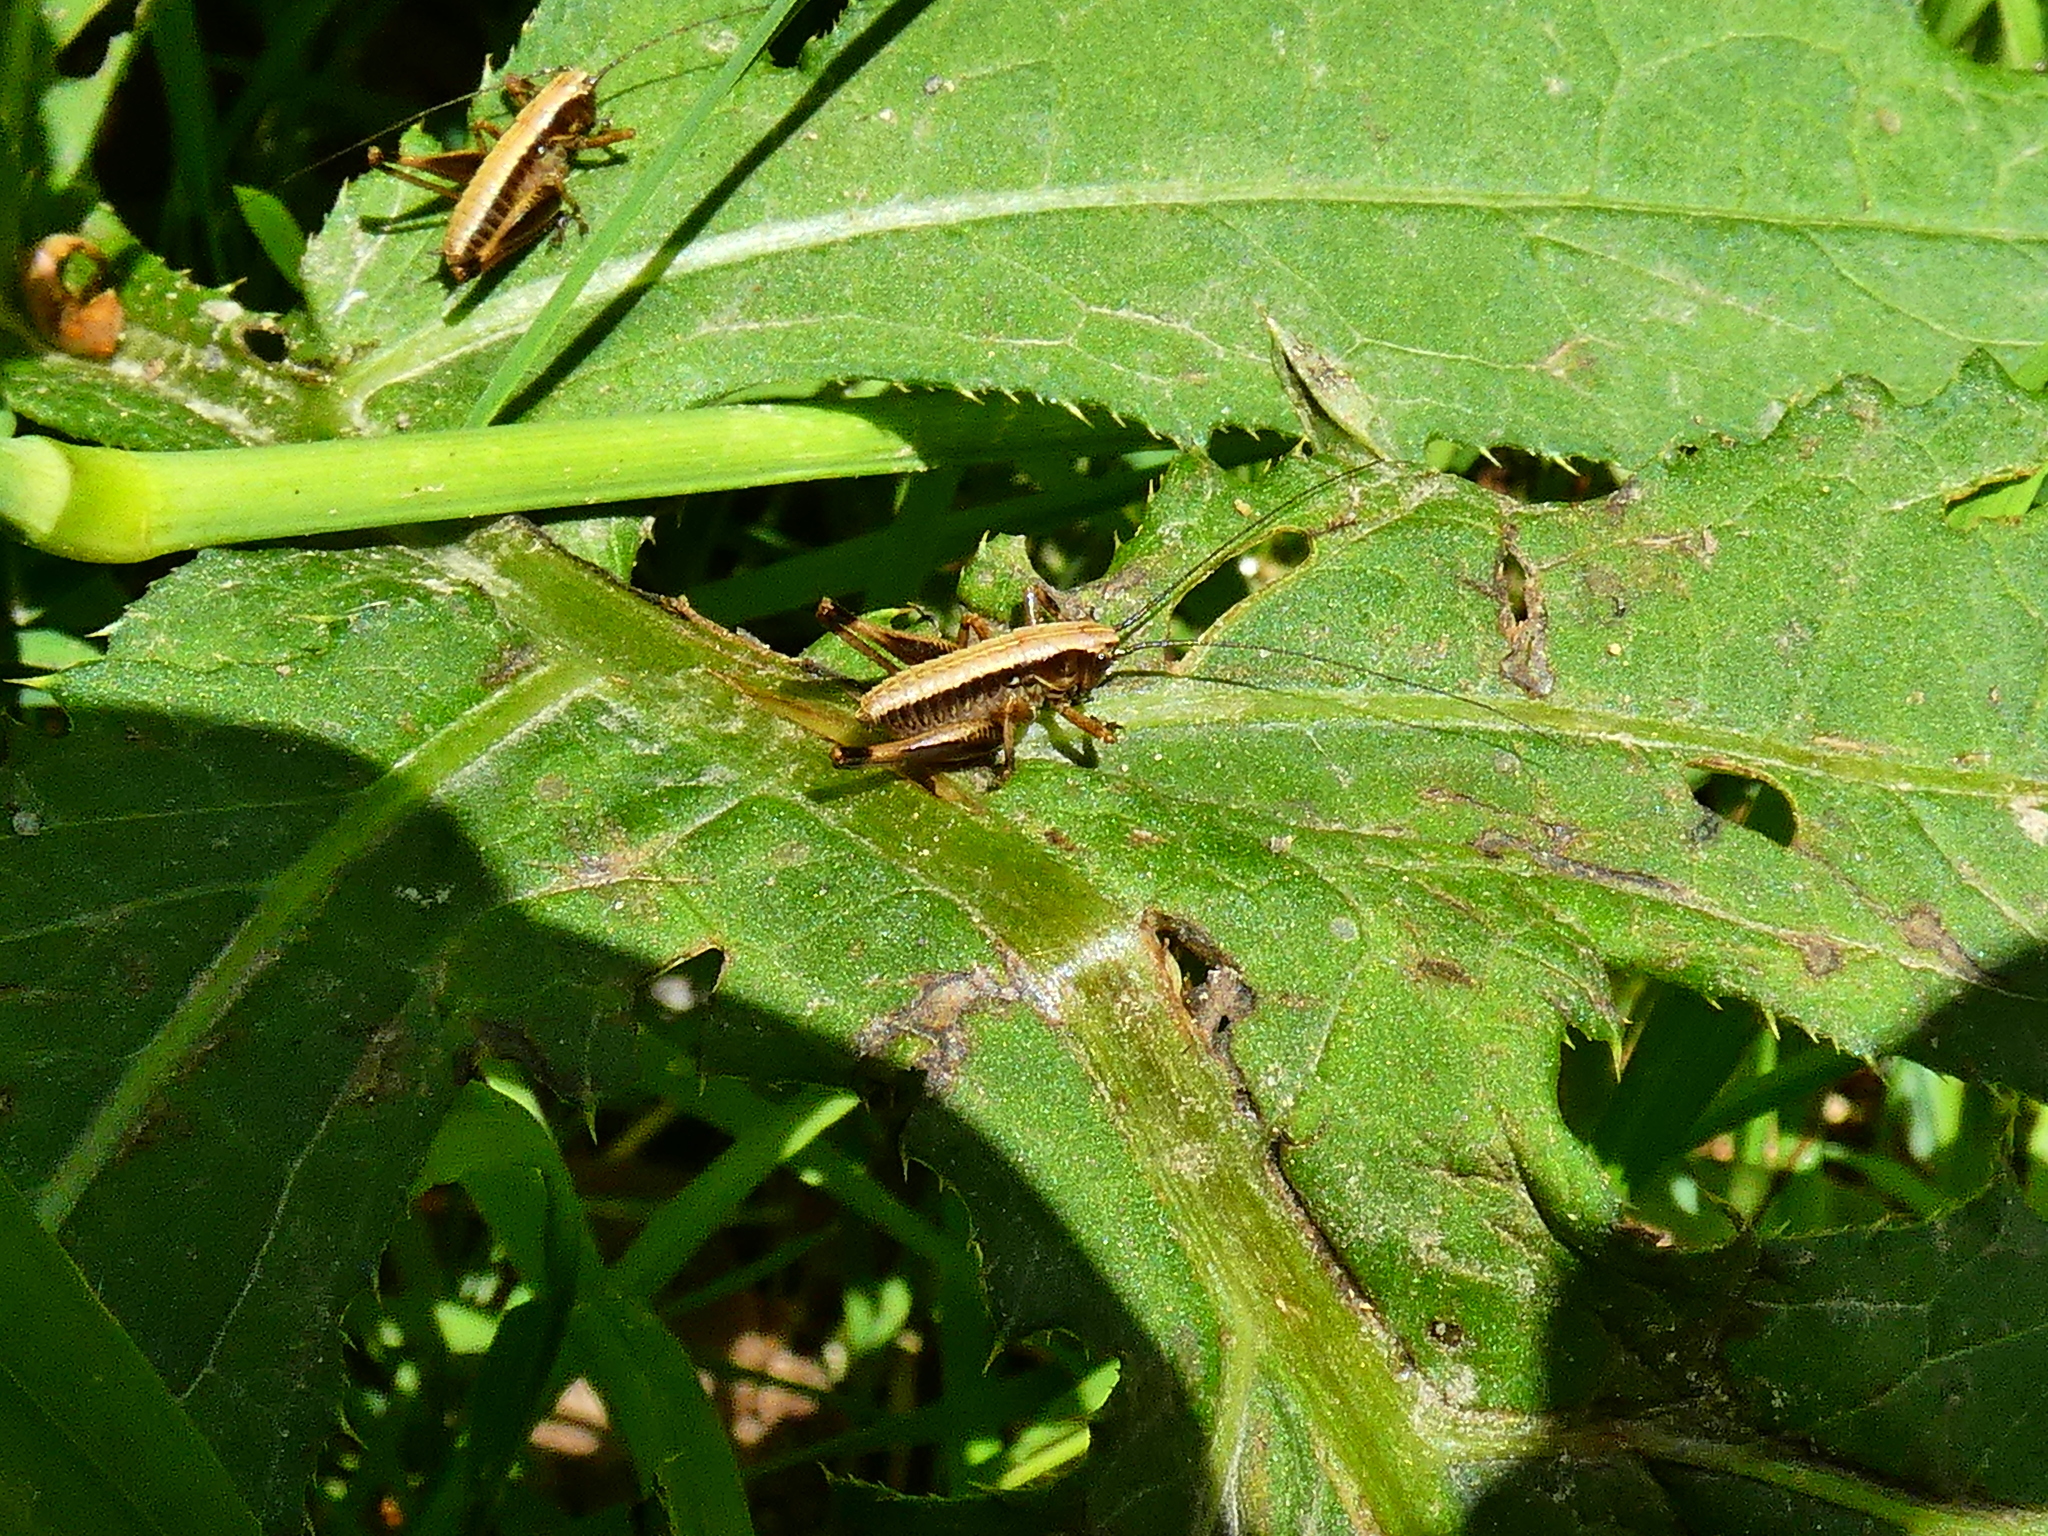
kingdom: Animalia
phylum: Arthropoda
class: Insecta
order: Orthoptera
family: Tettigoniidae
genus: Pholidoptera
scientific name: Pholidoptera griseoaptera
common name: Dark bush-cricket
